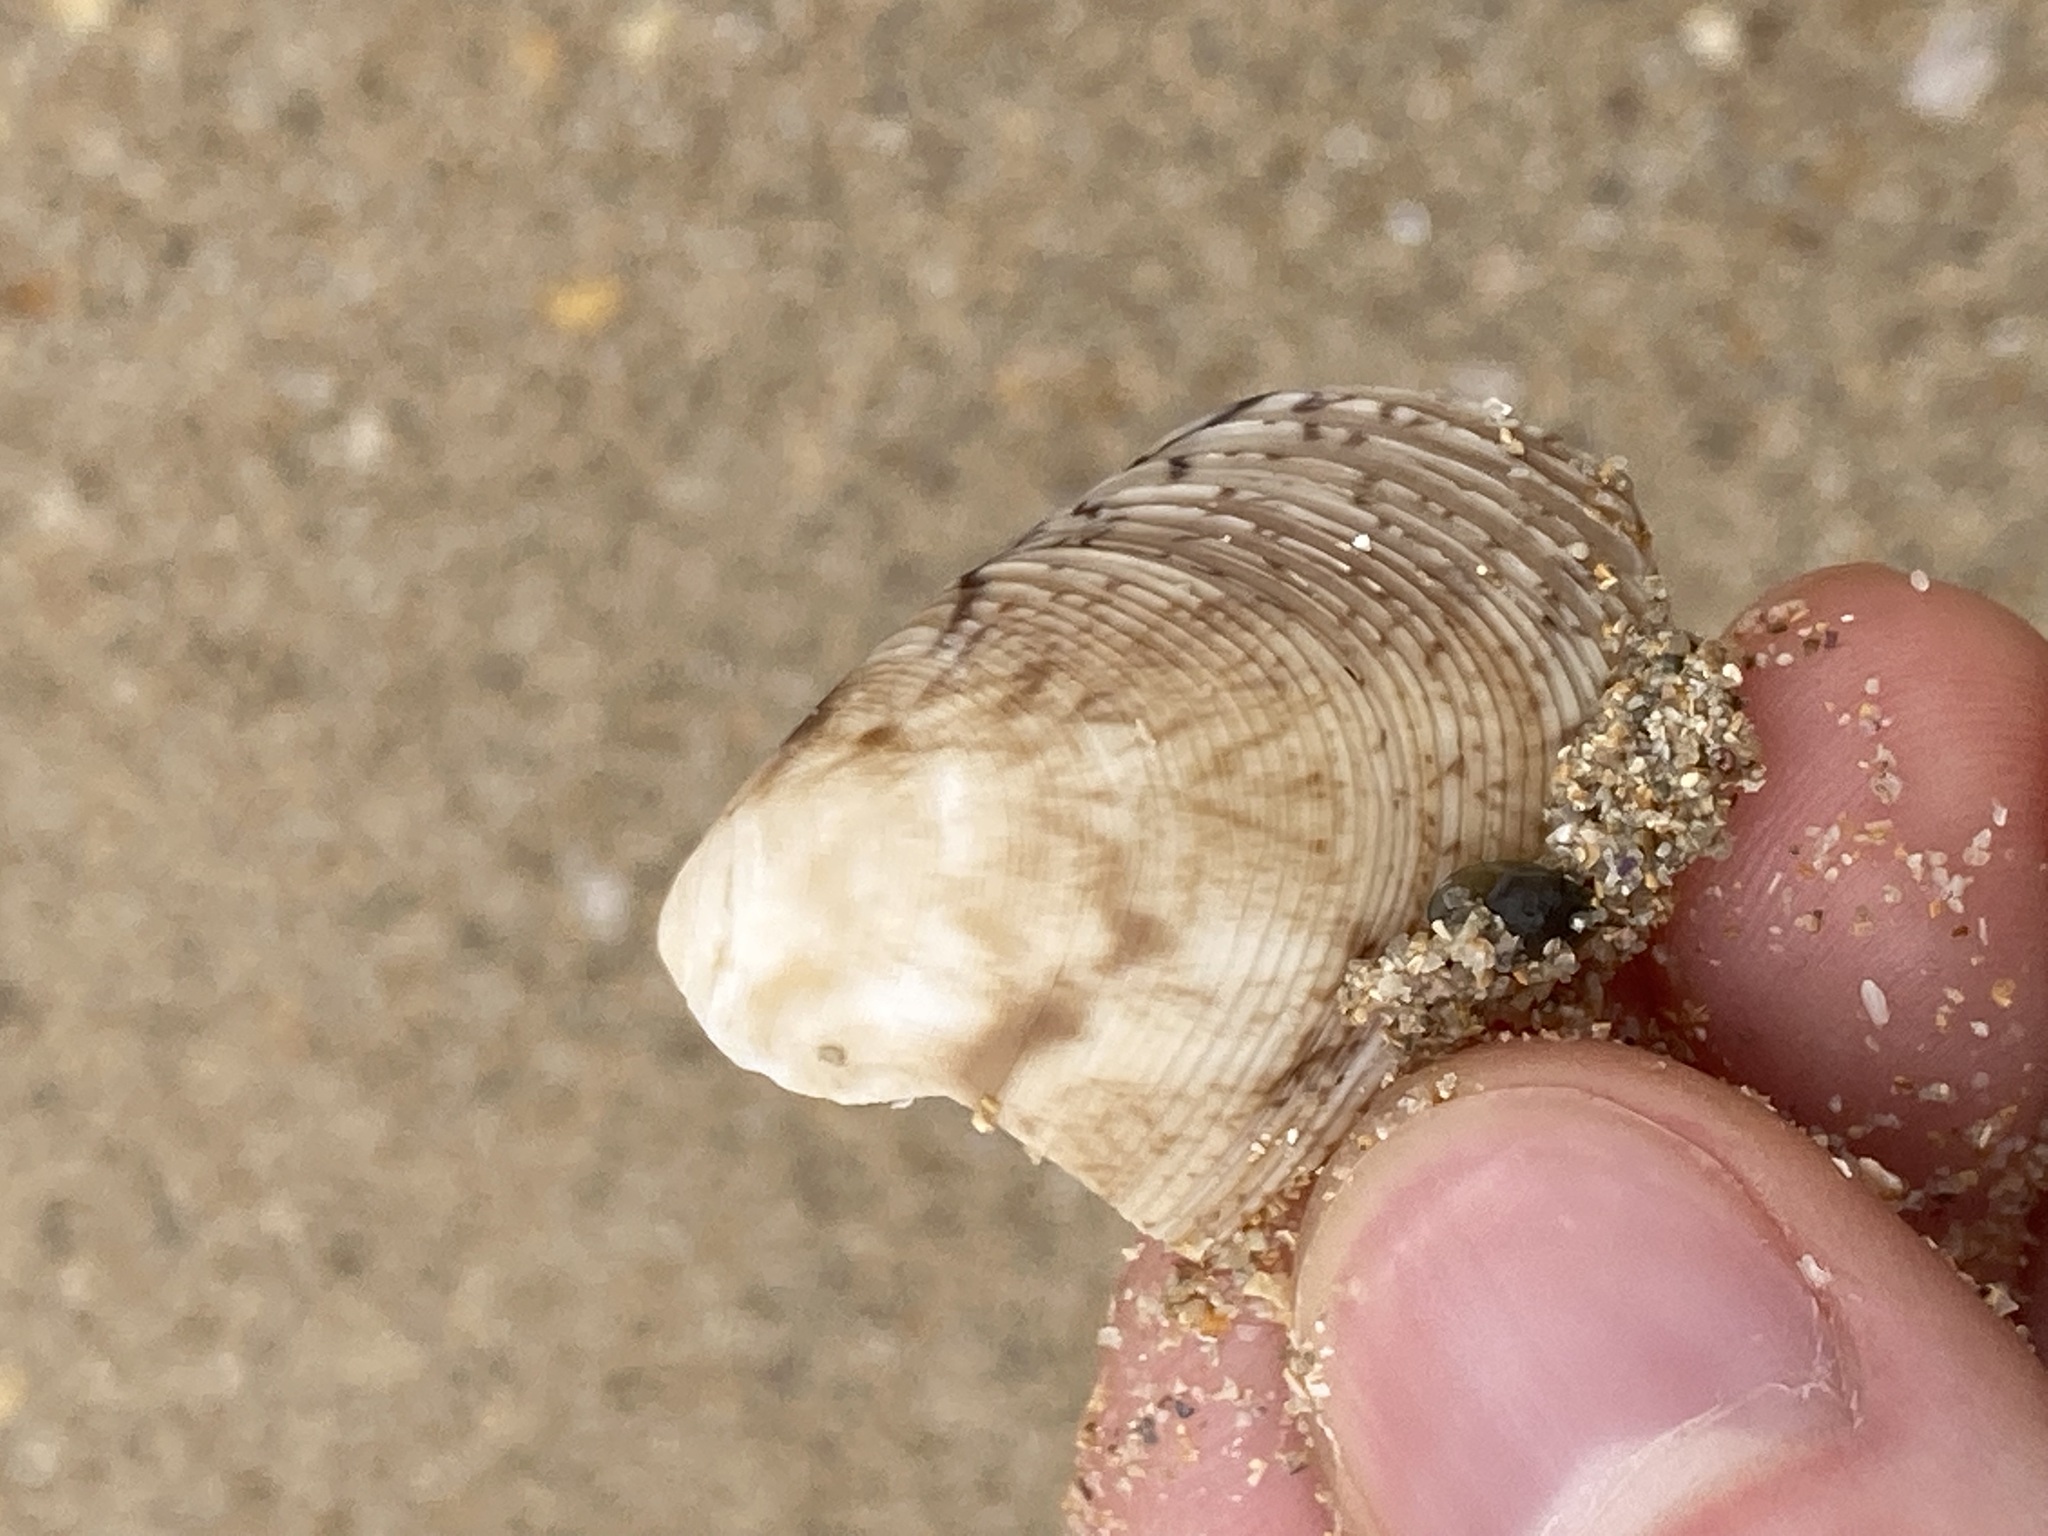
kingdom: Animalia
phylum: Mollusca
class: Bivalvia
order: Venerida
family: Veneridae
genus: Tapes
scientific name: Tapes conspersus
